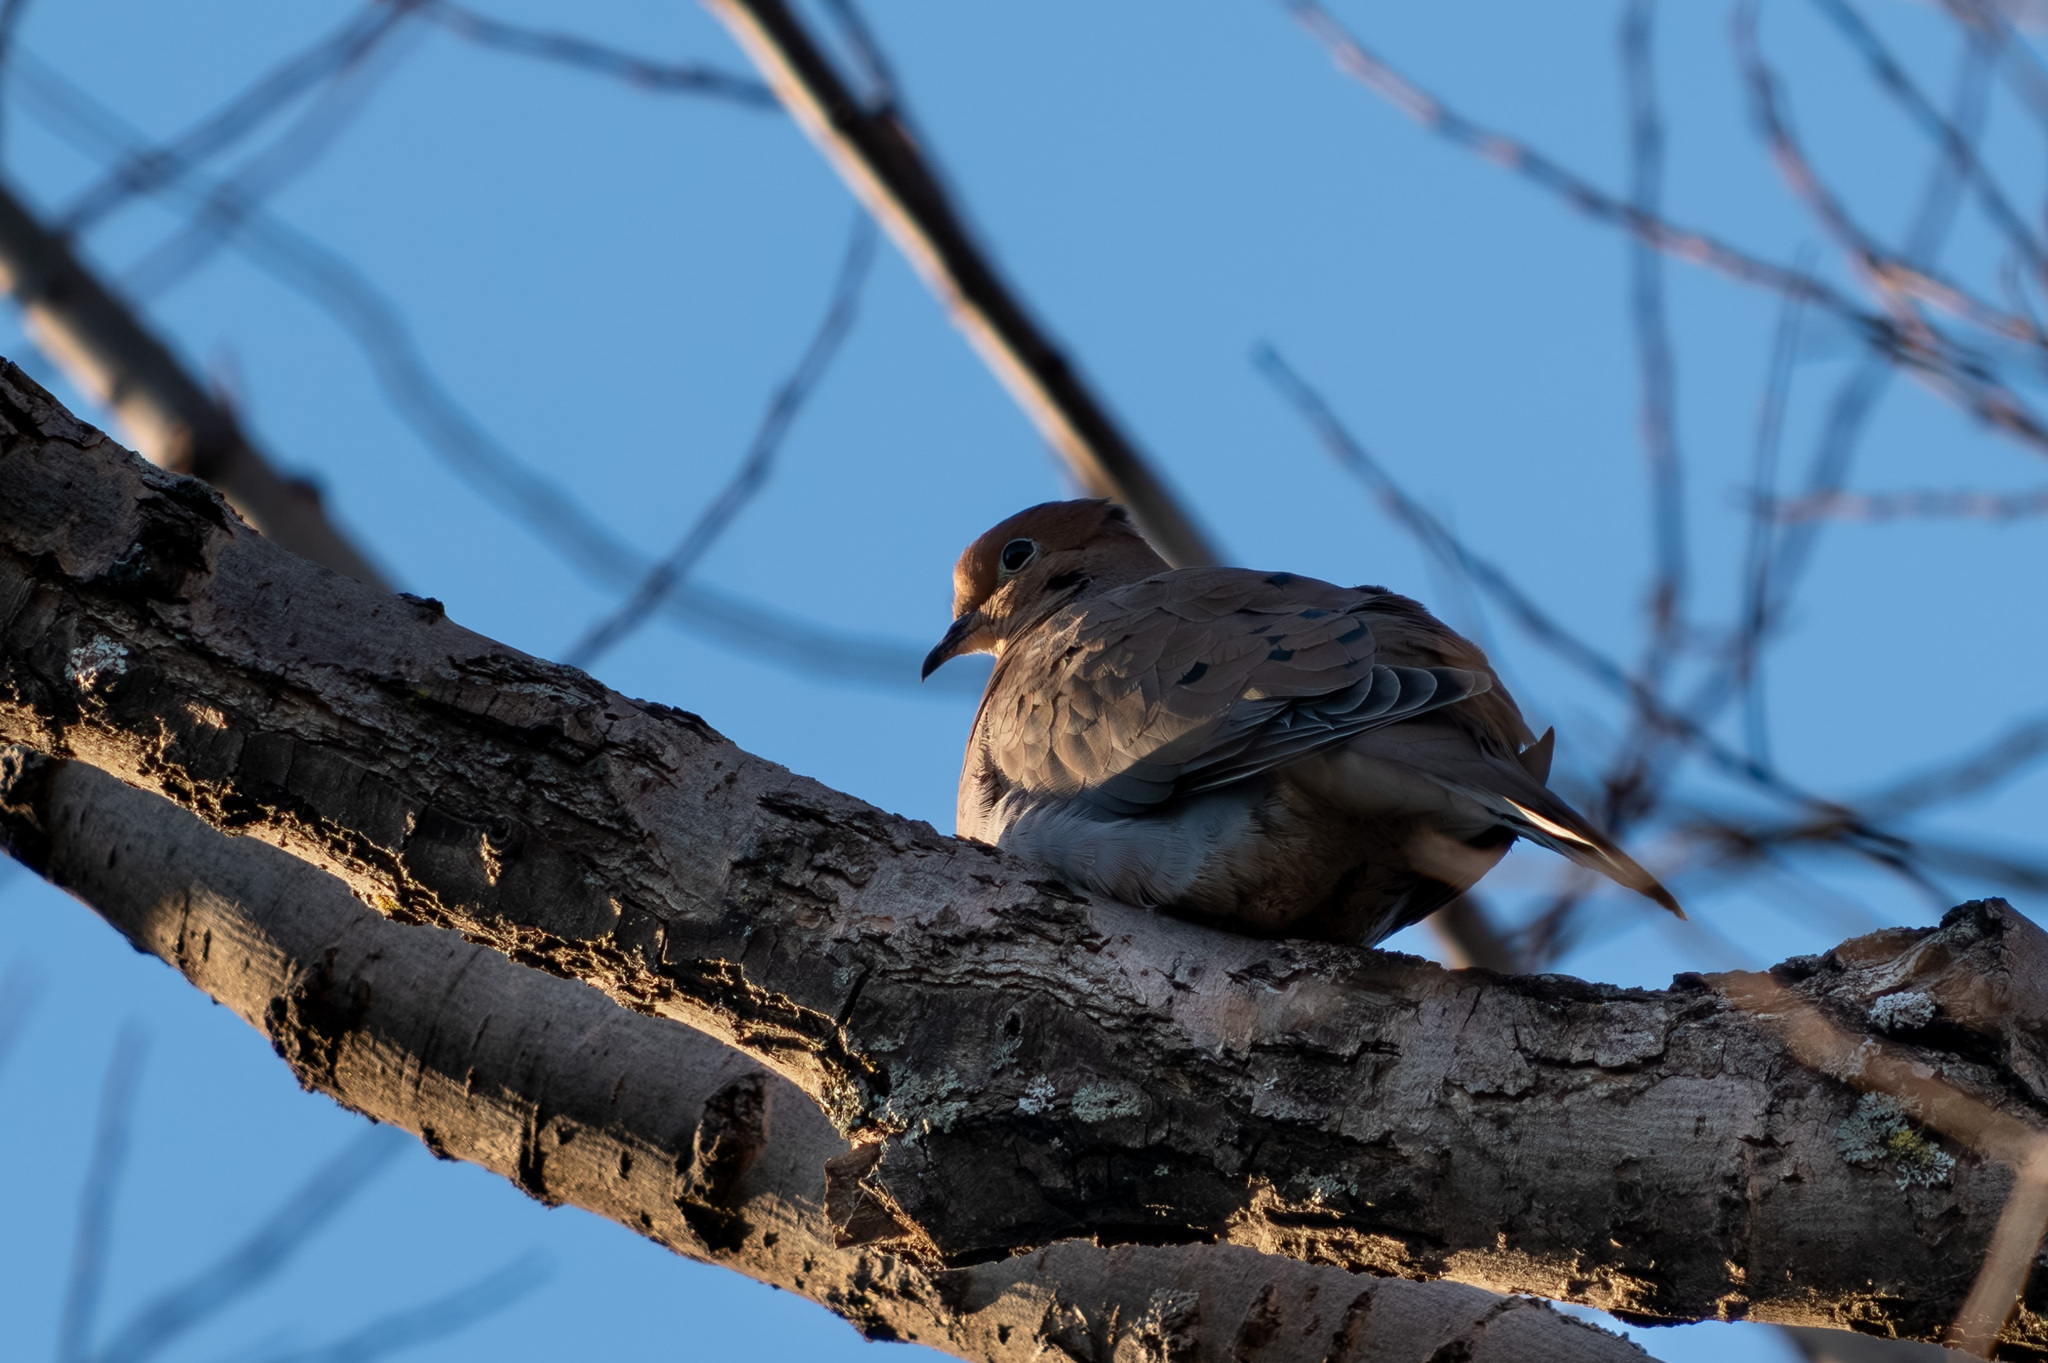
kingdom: Animalia
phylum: Chordata
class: Aves
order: Columbiformes
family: Columbidae
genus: Zenaida
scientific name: Zenaida macroura
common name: Mourning dove
